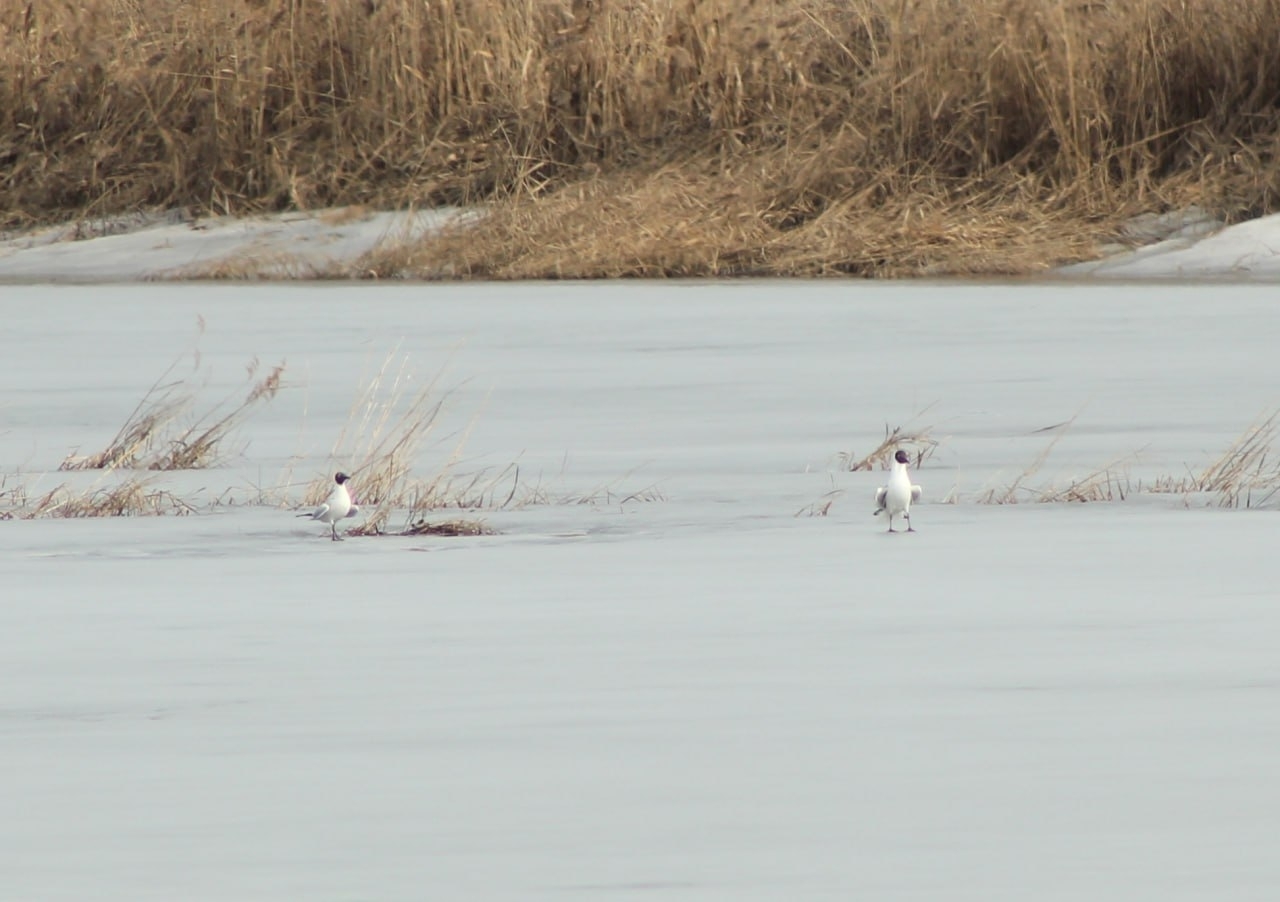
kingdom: Animalia
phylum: Chordata
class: Aves
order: Charadriiformes
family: Laridae
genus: Chroicocephalus
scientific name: Chroicocephalus ridibundus
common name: Black-headed gull
